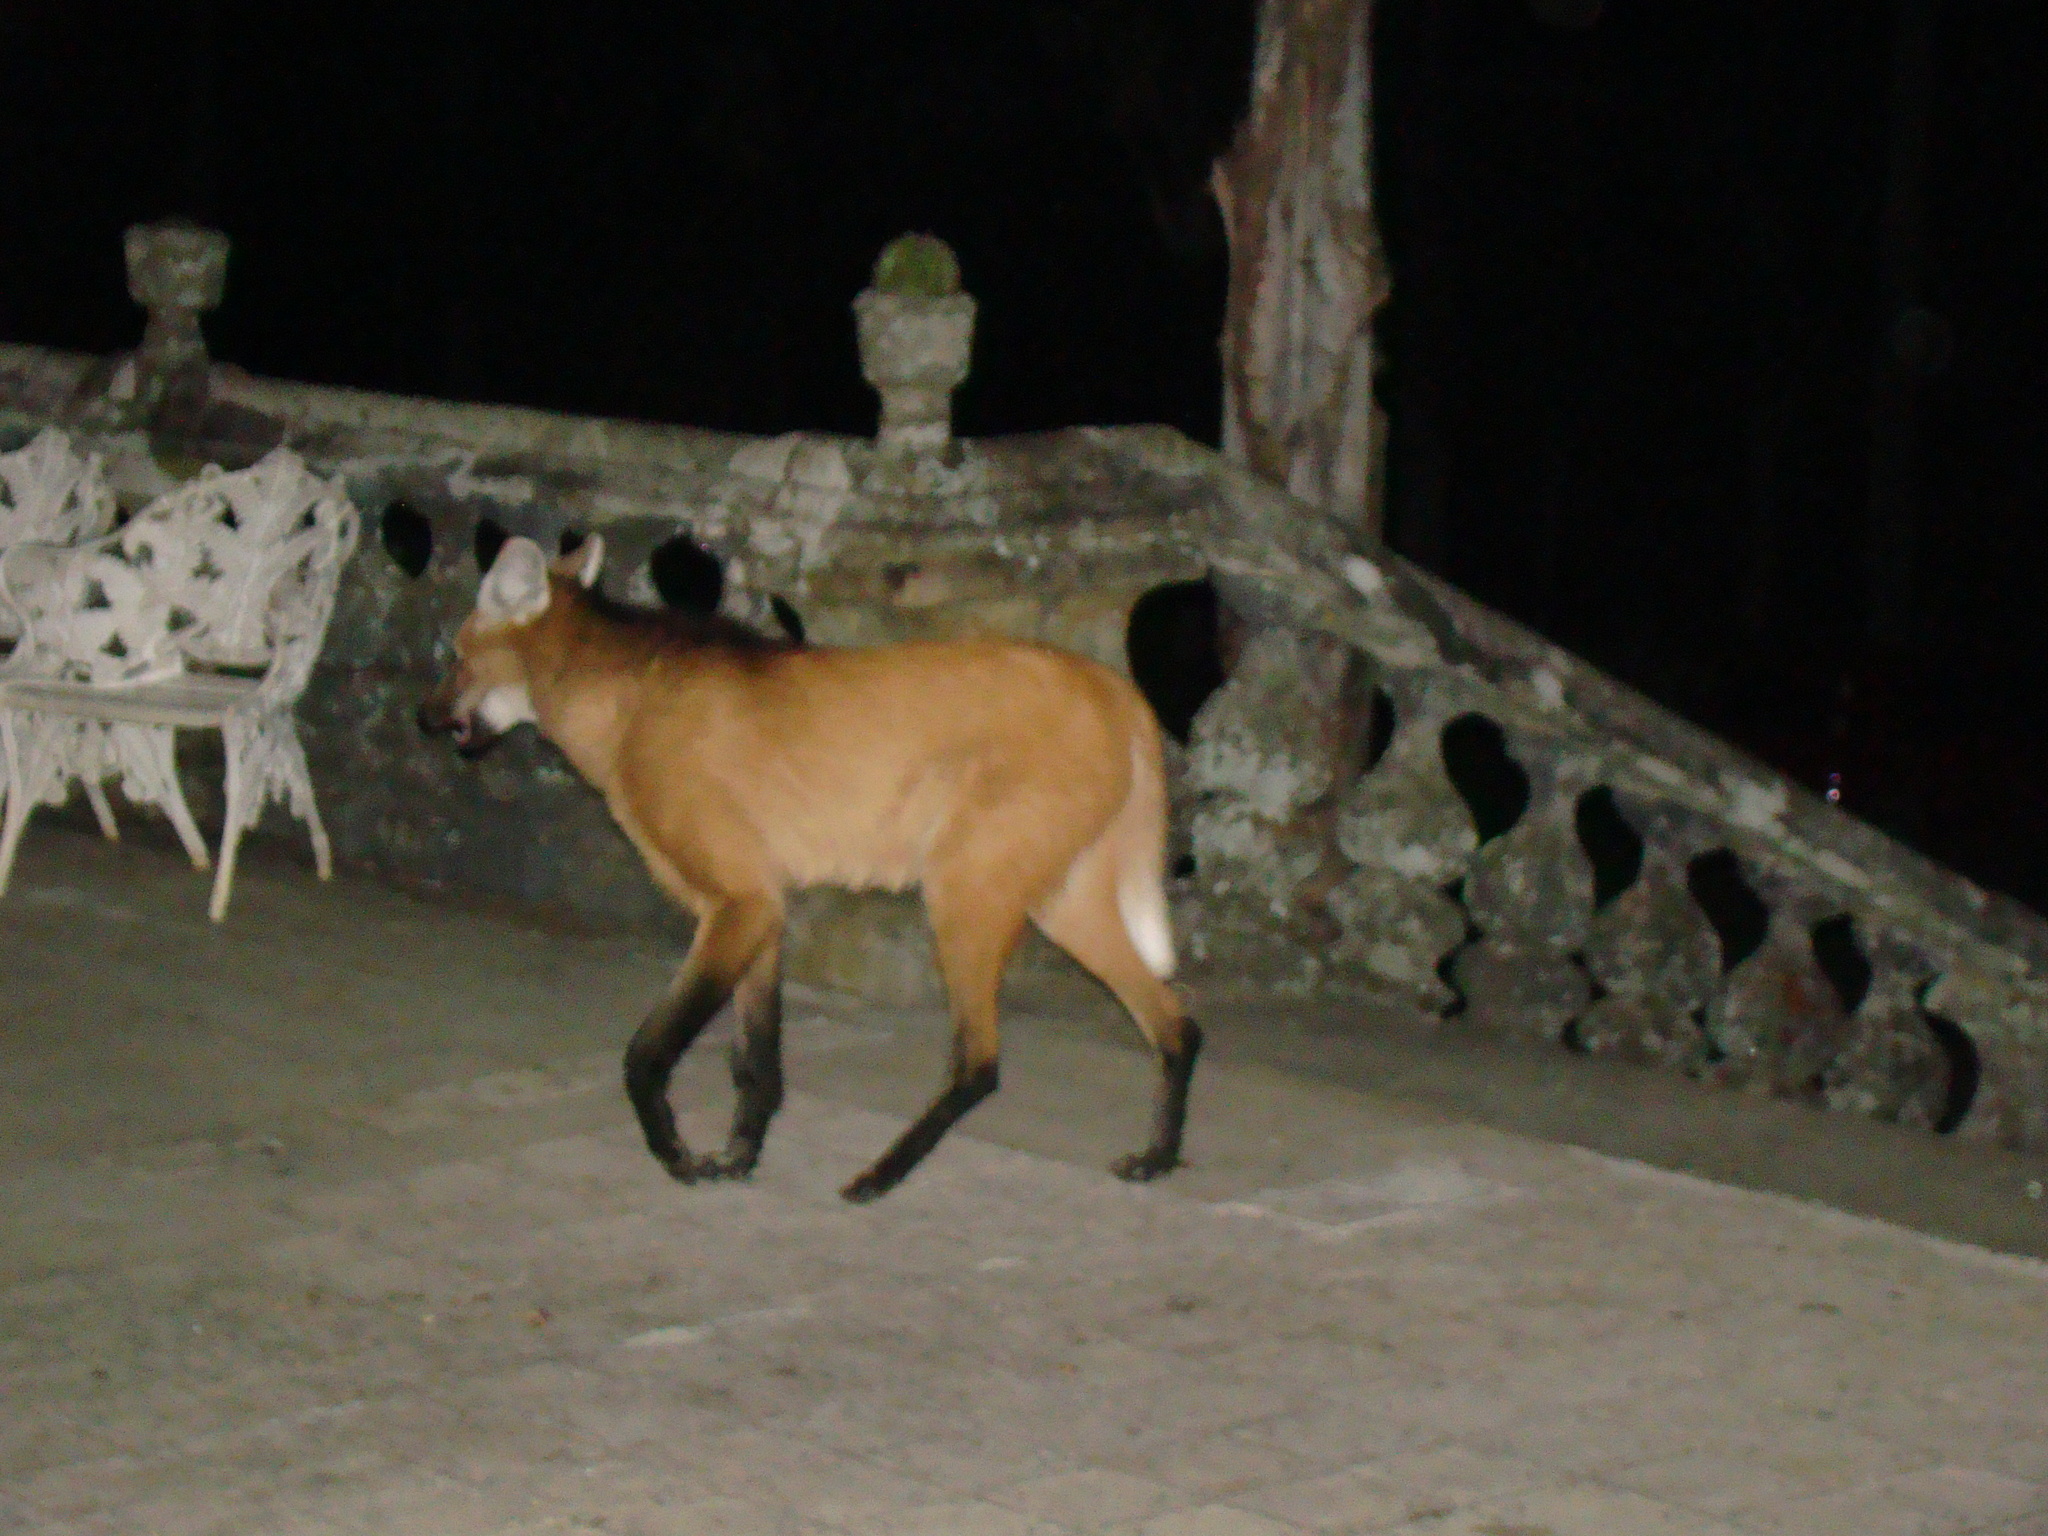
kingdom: Animalia
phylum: Chordata
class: Mammalia
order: Carnivora
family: Canidae
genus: Chrysocyon
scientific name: Chrysocyon brachyurus
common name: Maned wolf
